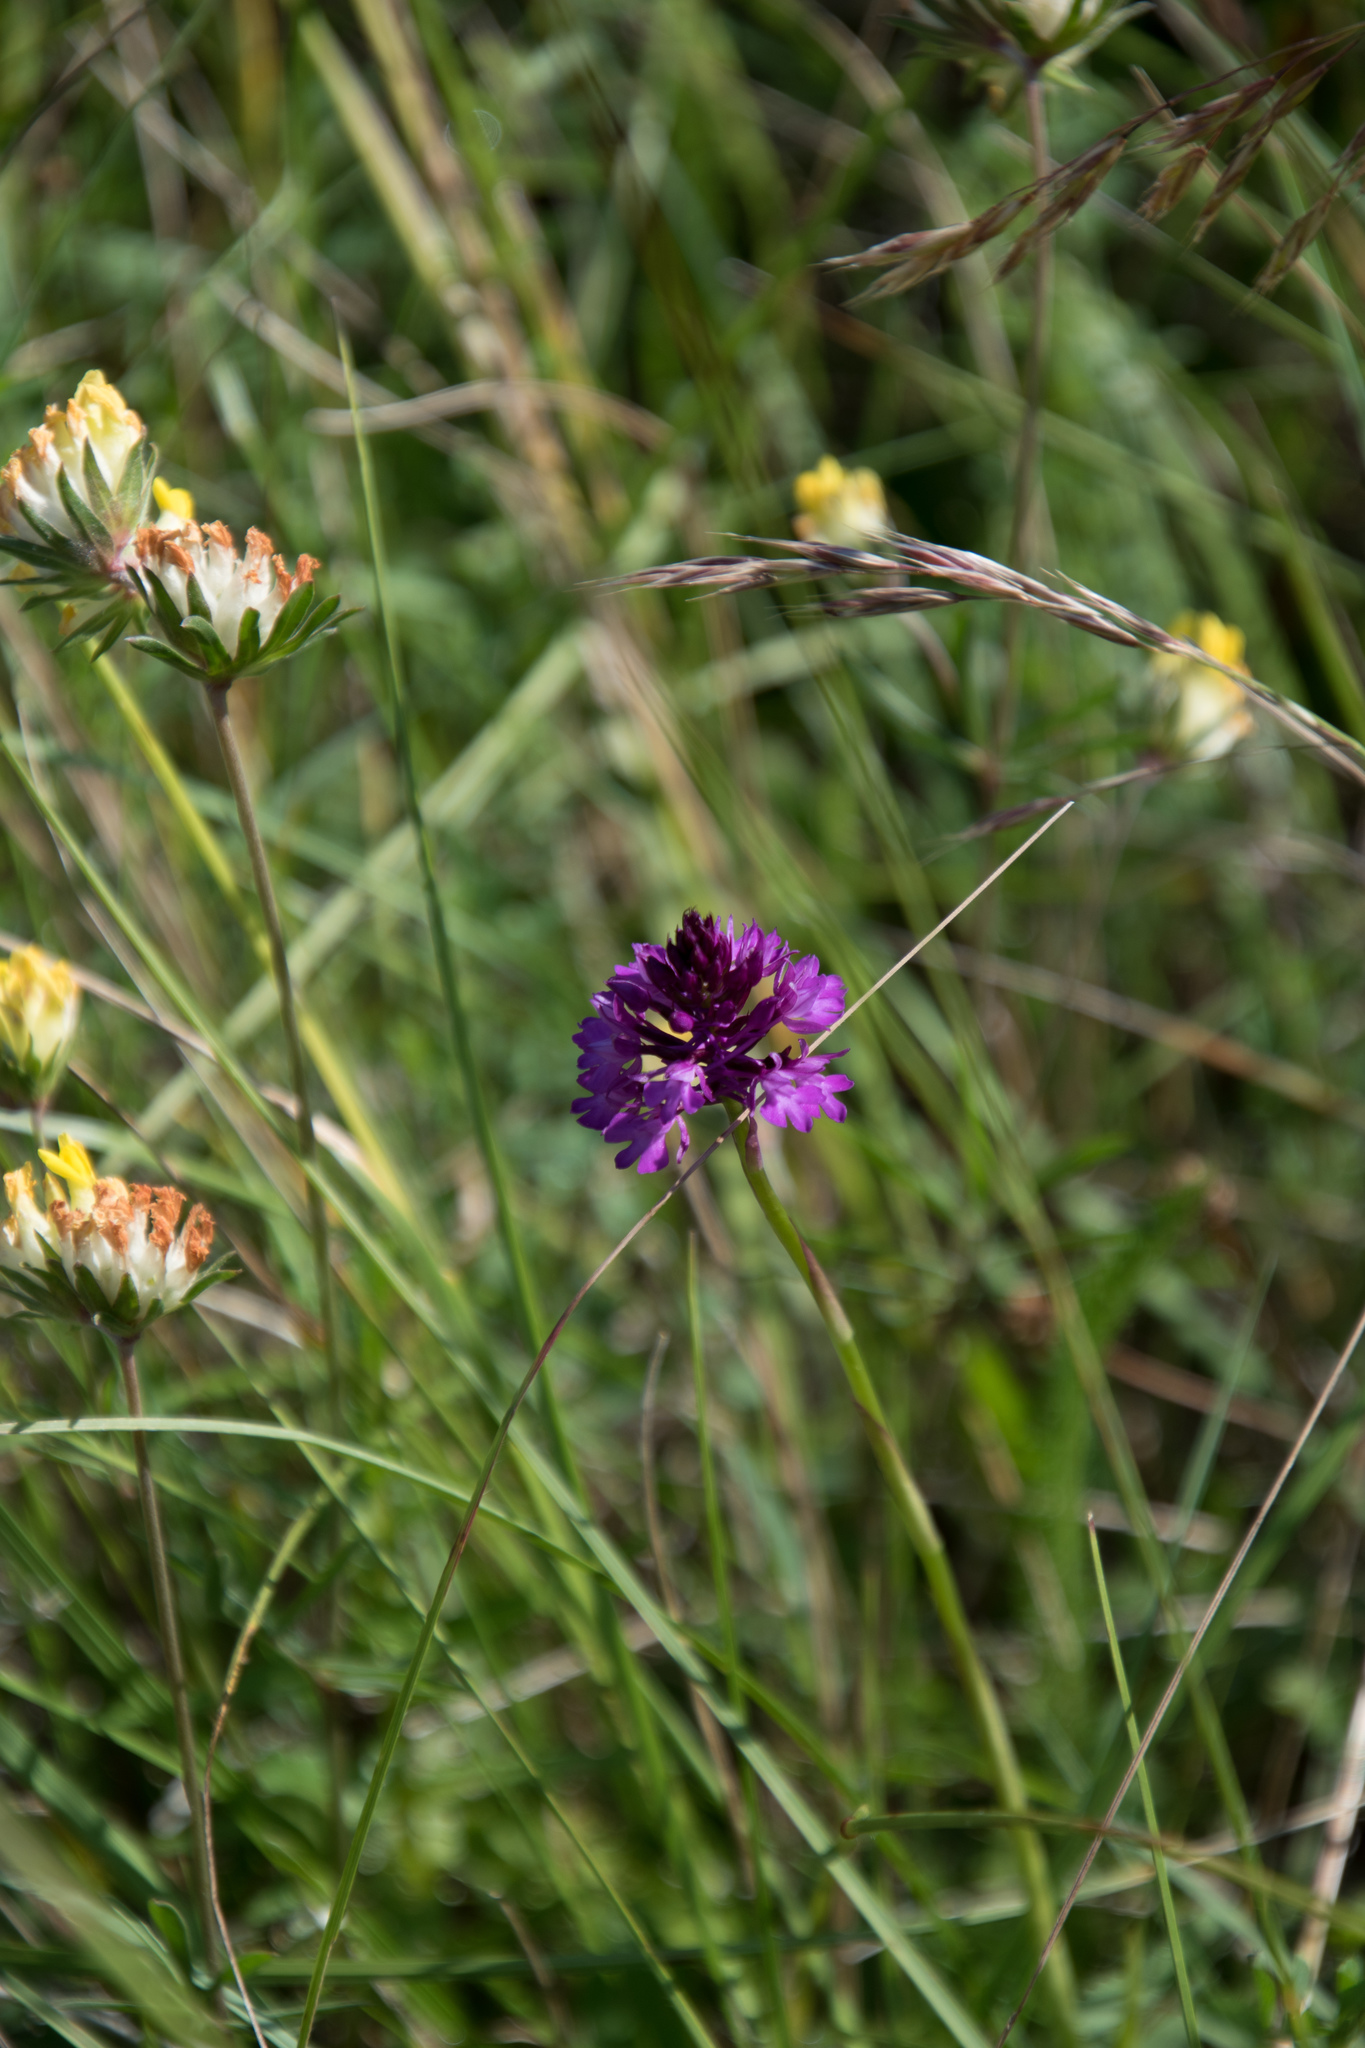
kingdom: Plantae
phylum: Tracheophyta
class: Liliopsida
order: Asparagales
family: Orchidaceae
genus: Anacamptis
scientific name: Anacamptis pyramidalis
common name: Pyramidal orchid
